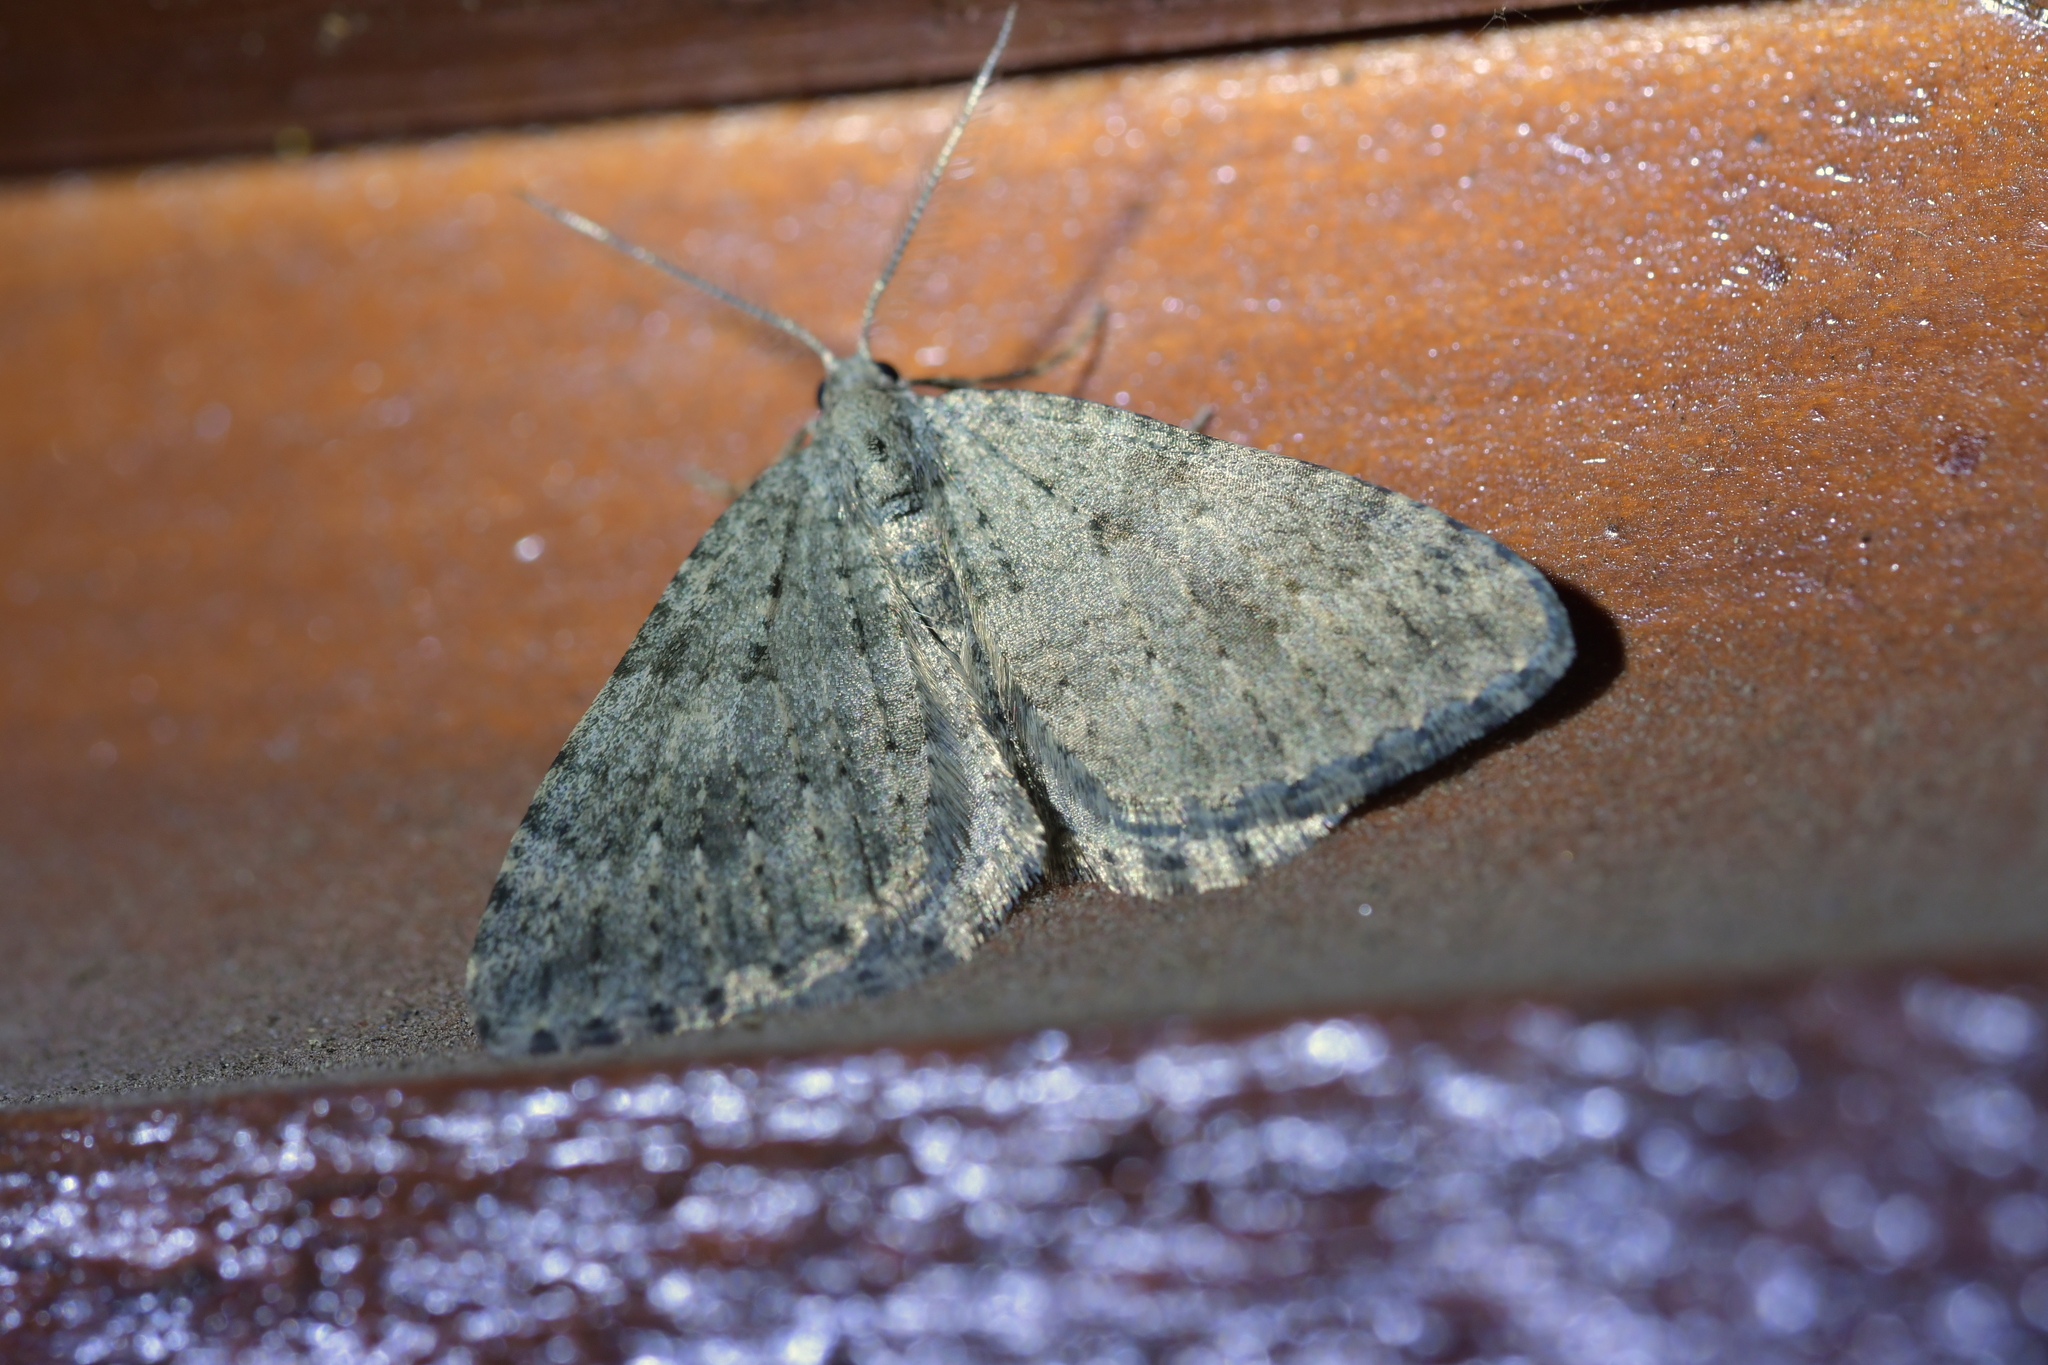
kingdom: Animalia
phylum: Arthropoda
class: Insecta
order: Lepidoptera
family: Geometridae
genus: Helastia
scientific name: Helastia corcularia
